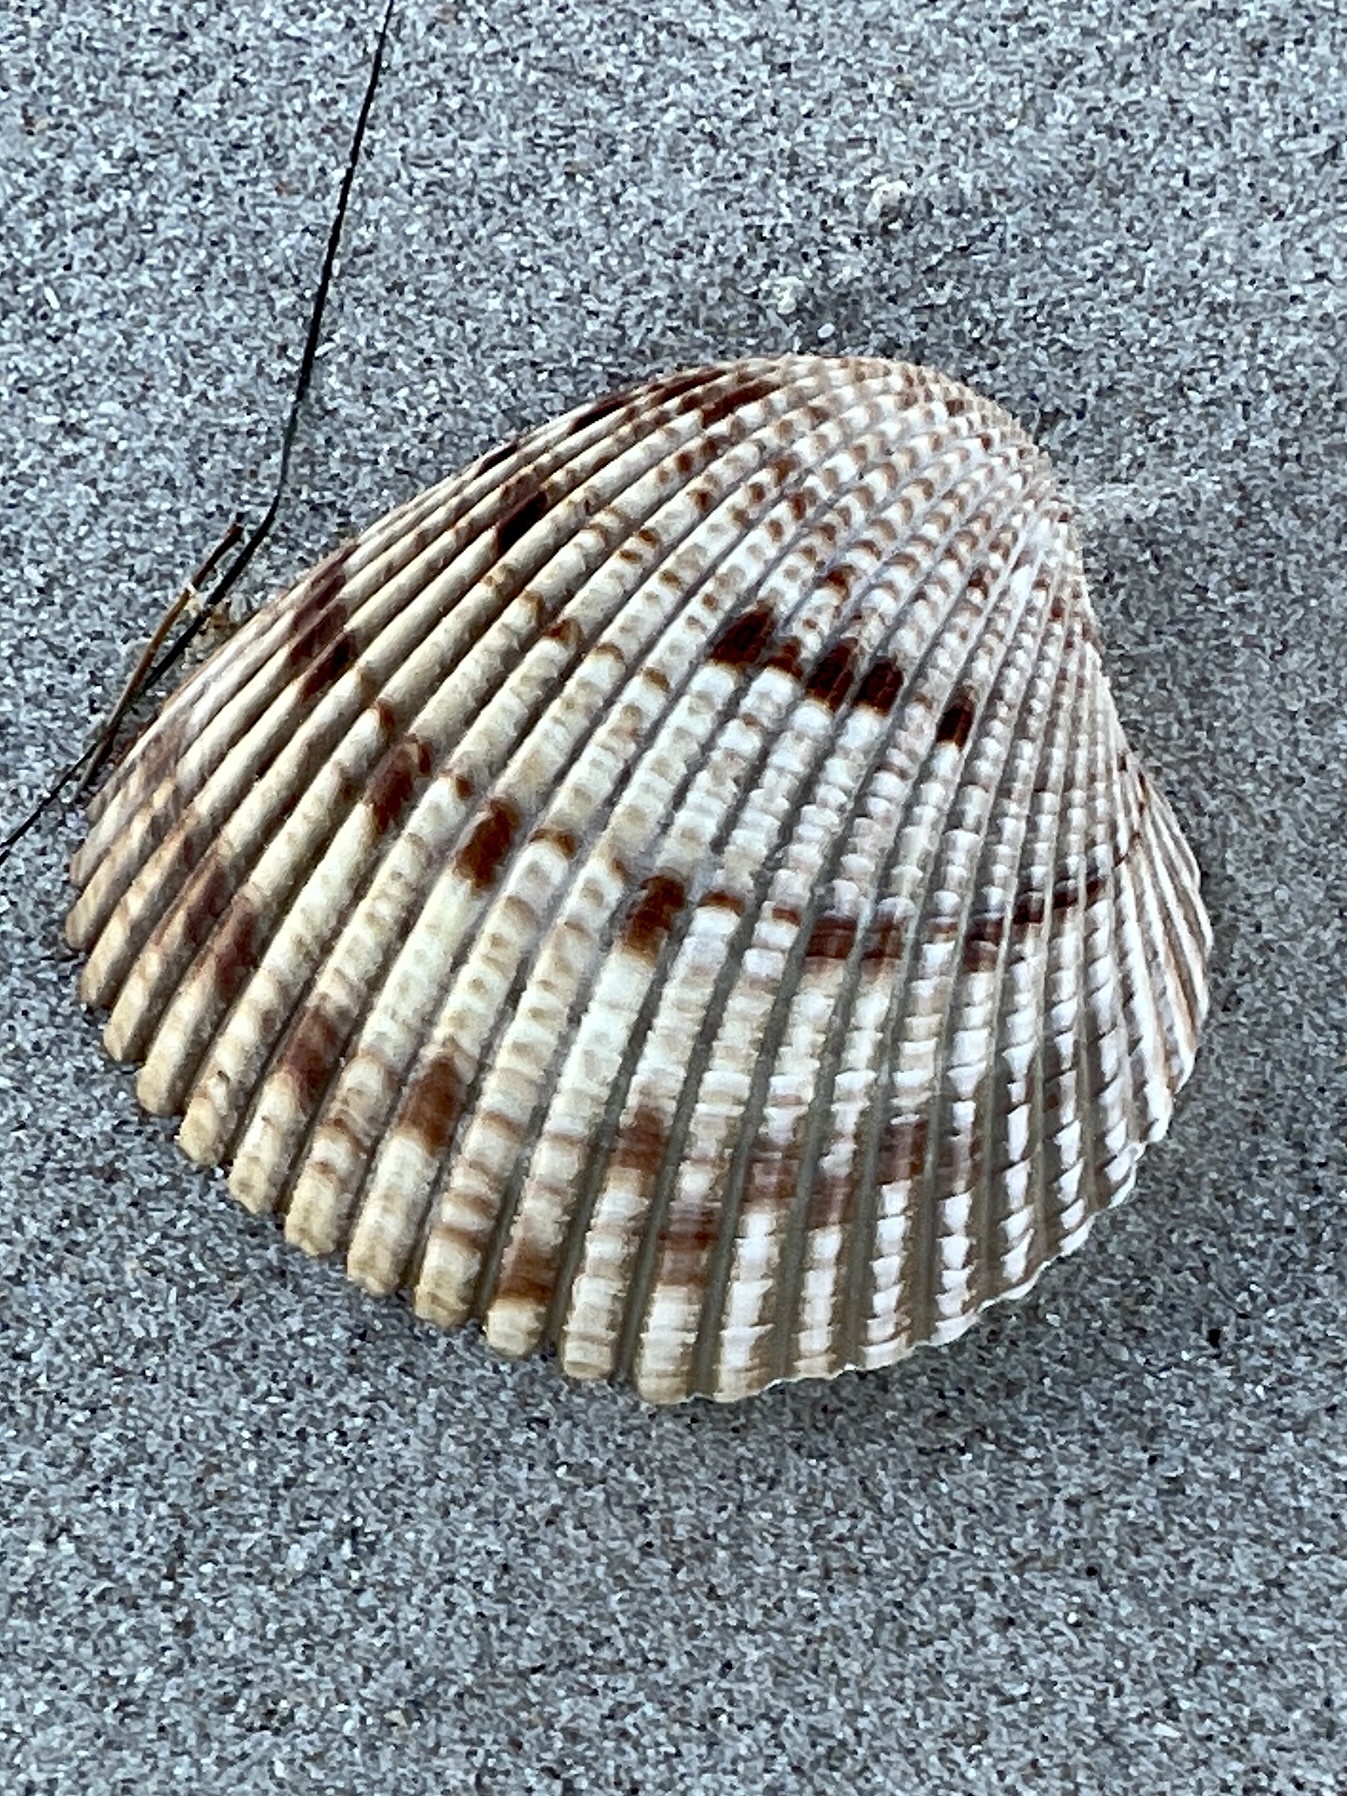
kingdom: Animalia
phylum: Mollusca
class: Bivalvia
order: Cardiida
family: Cardiidae
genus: Dinocardium
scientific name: Dinocardium robustum
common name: Atlantic giant cockle
